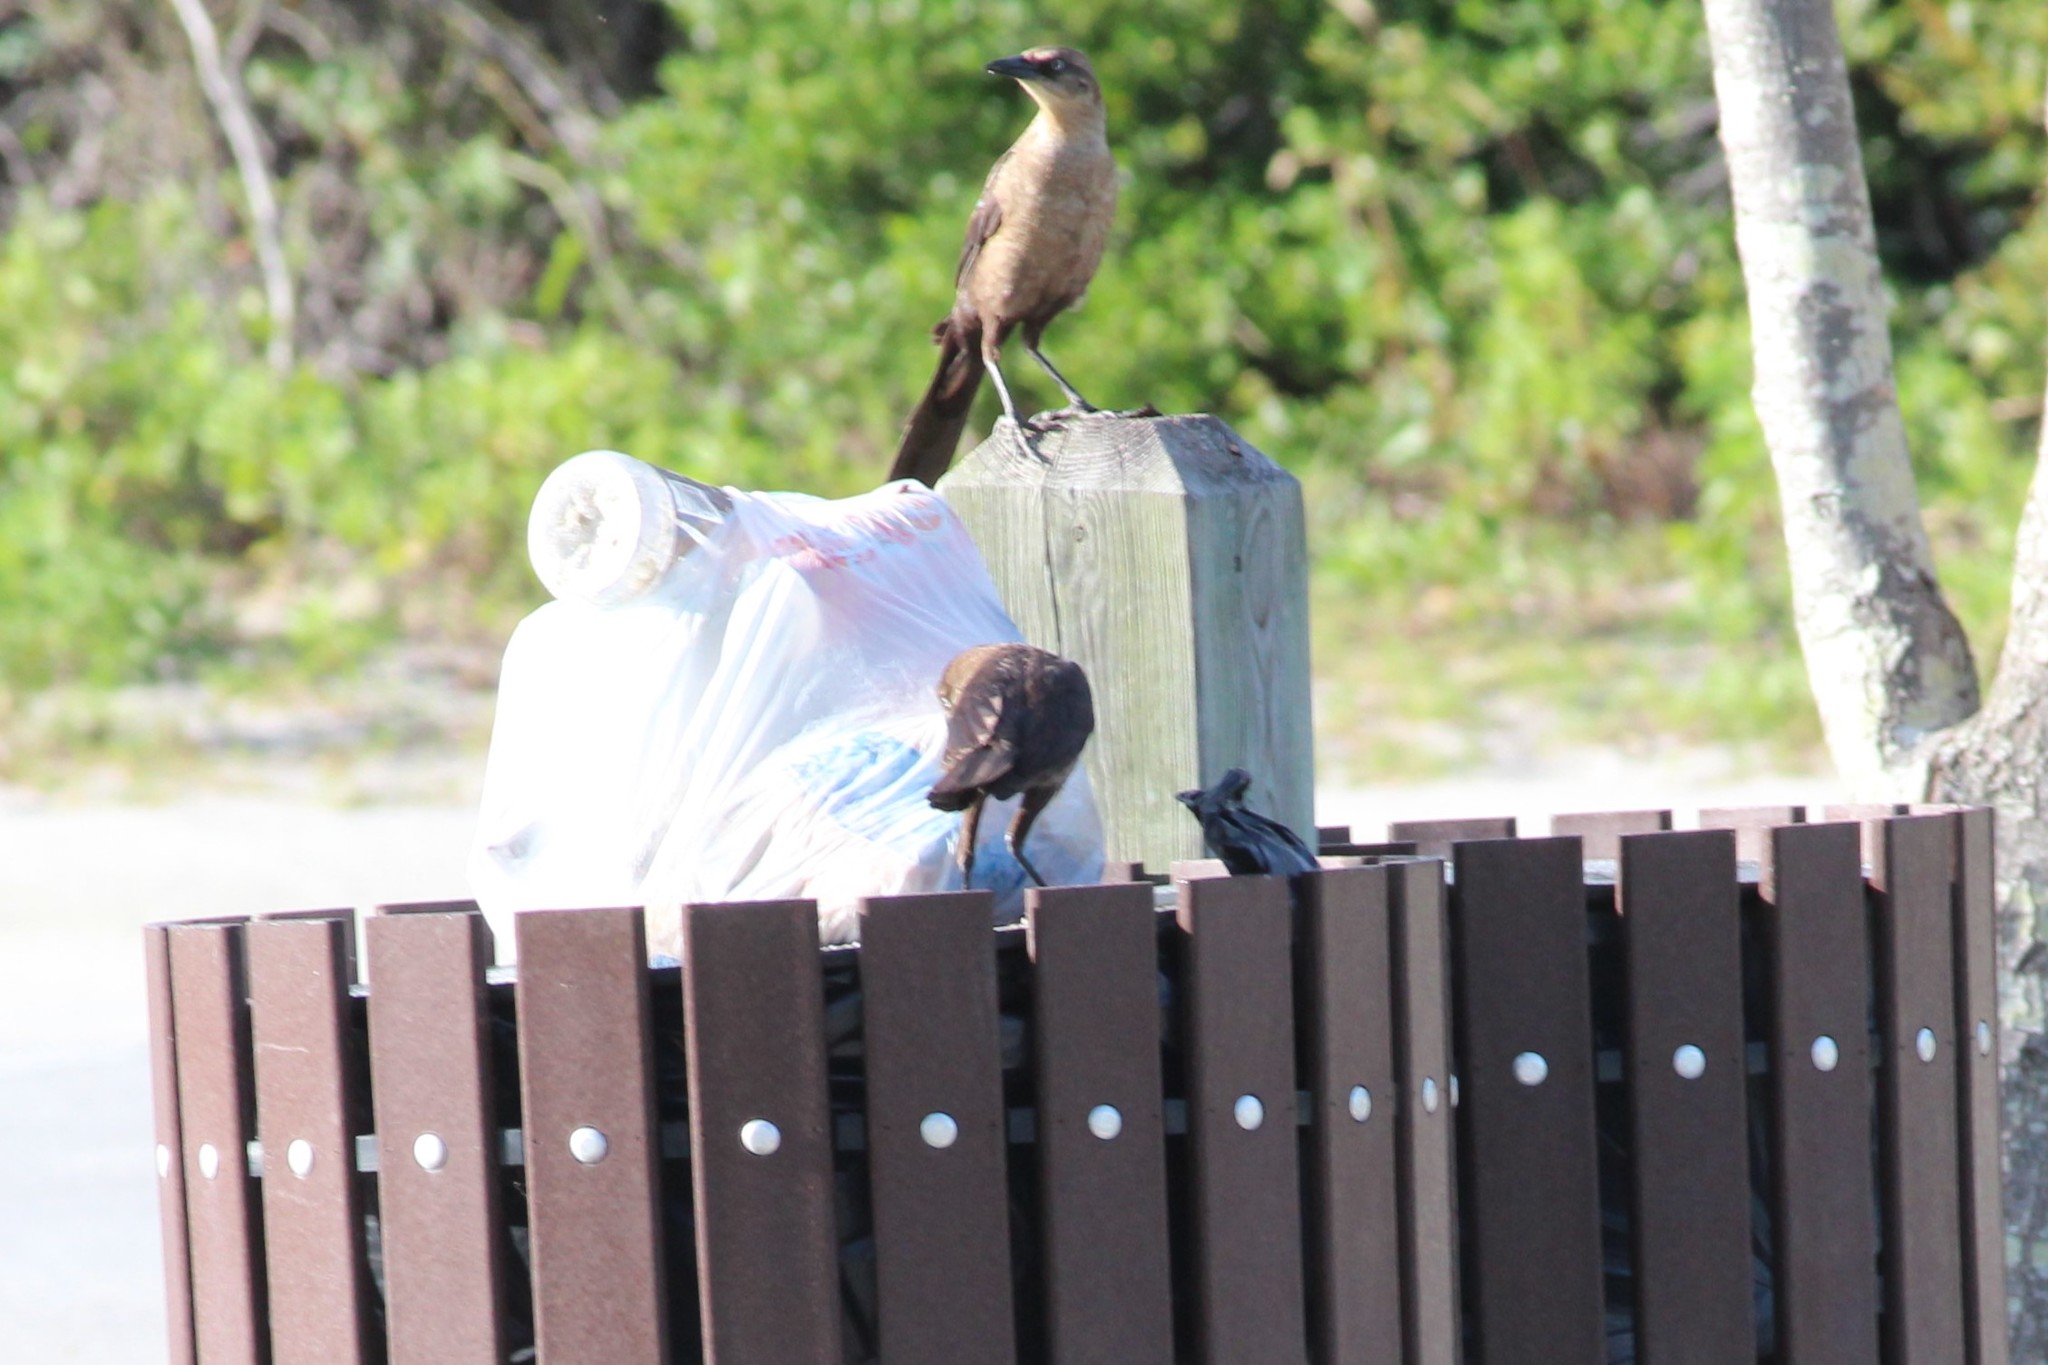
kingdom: Animalia
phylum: Chordata
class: Aves
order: Passeriformes
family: Icteridae
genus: Quiscalus
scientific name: Quiscalus major
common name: Boat-tailed grackle
